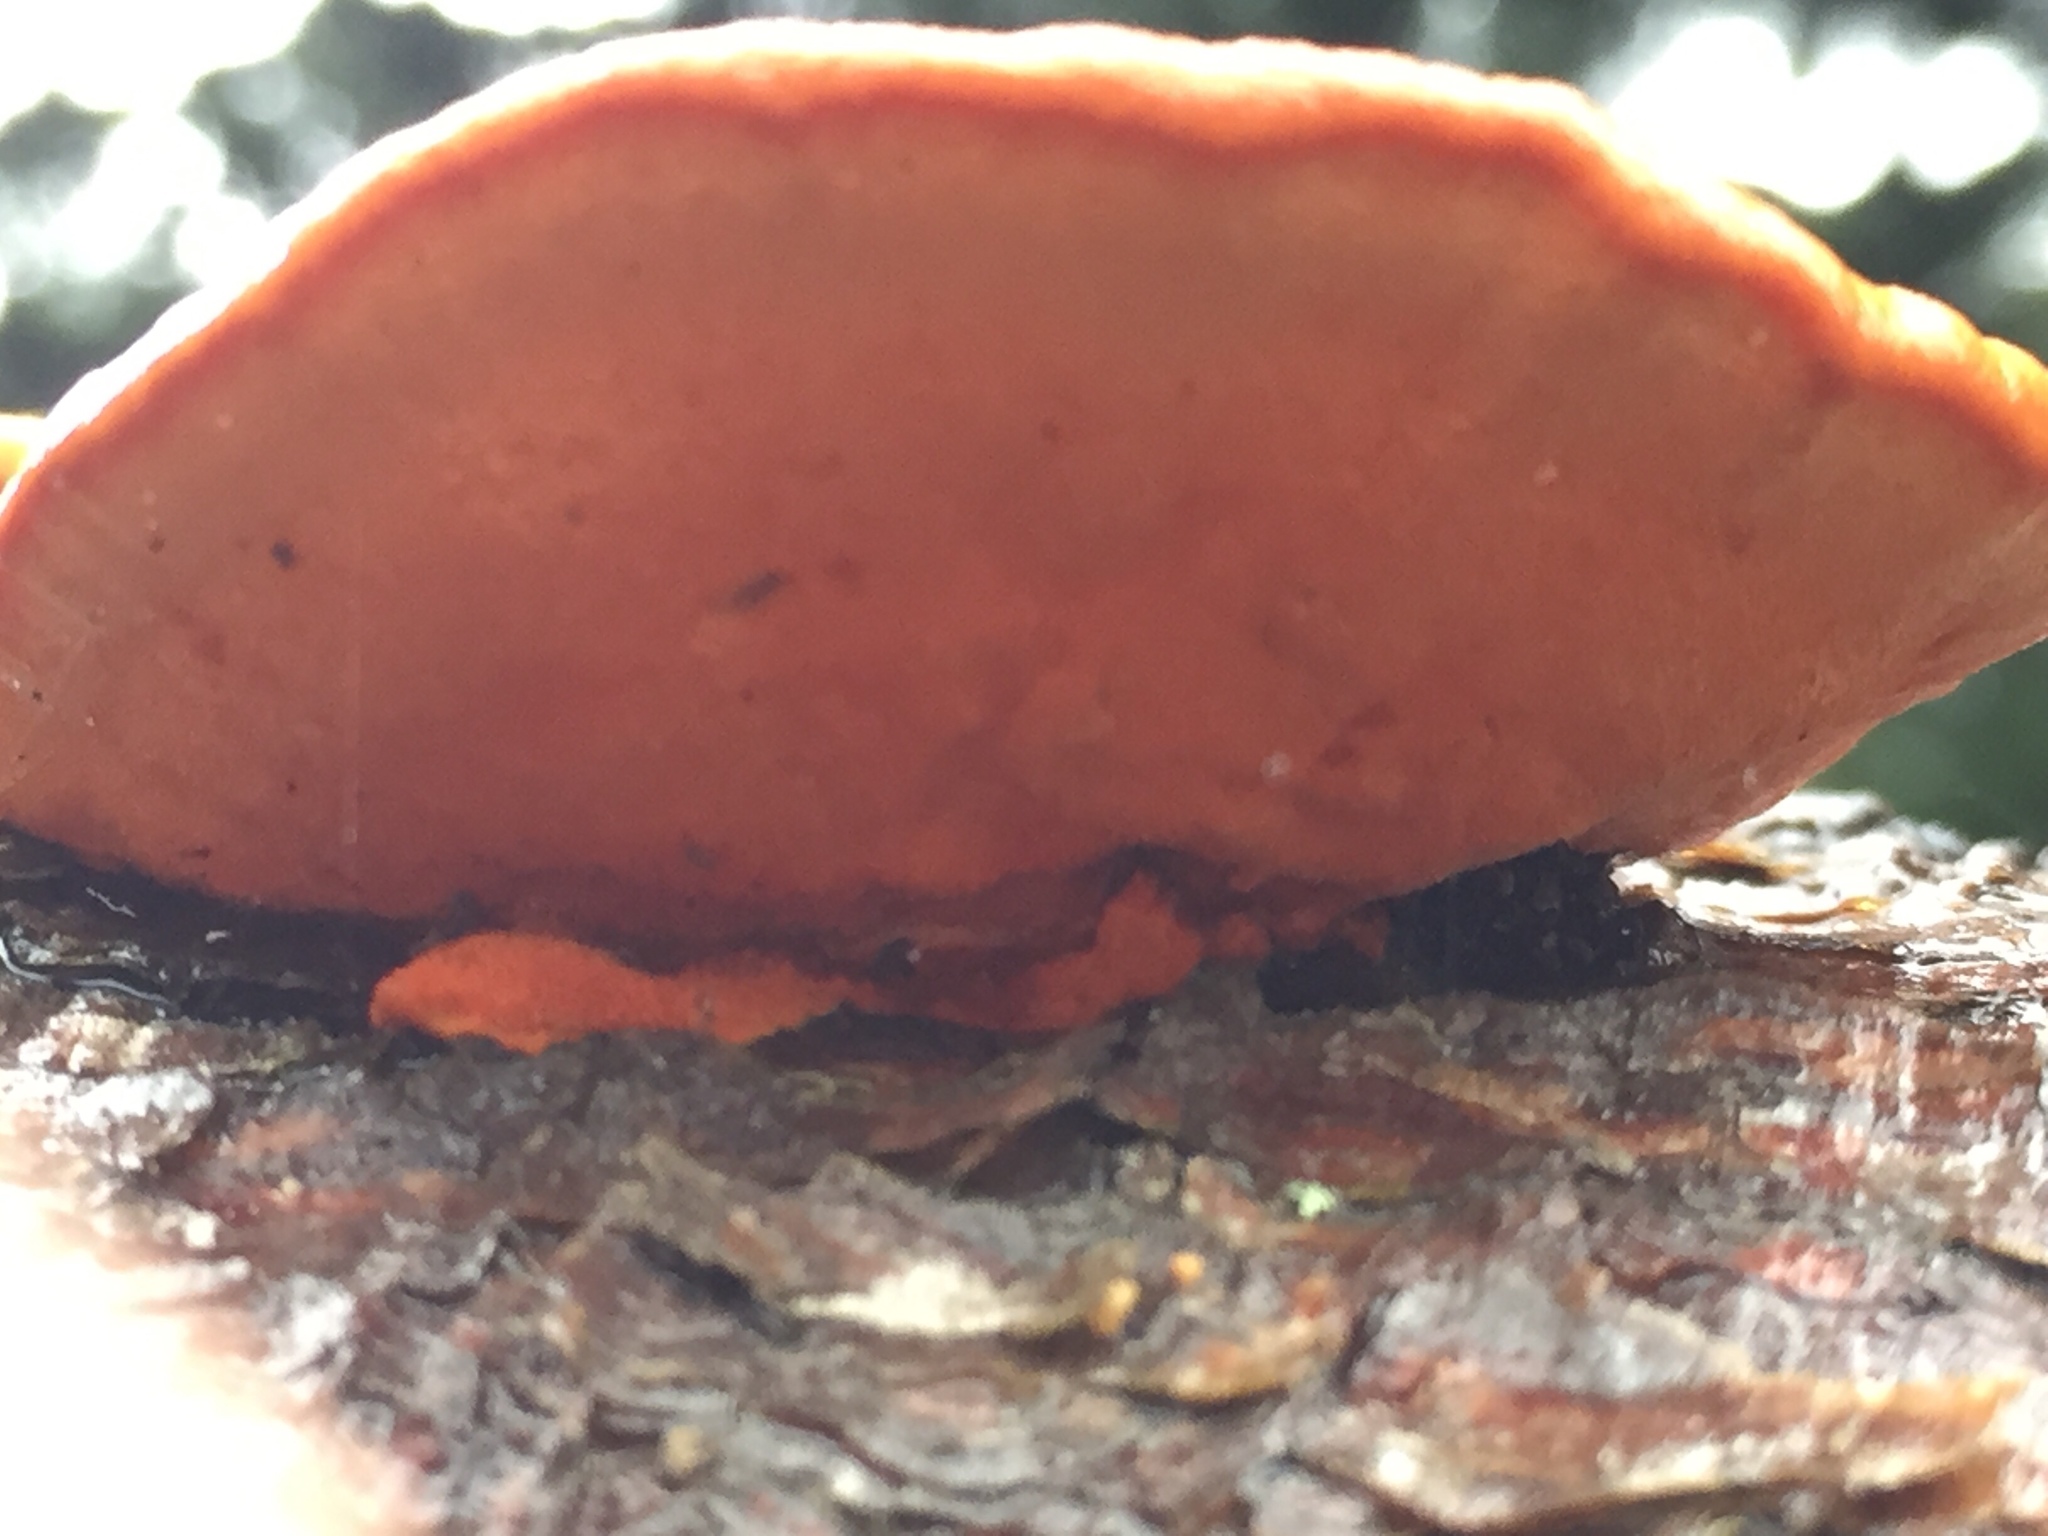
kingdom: Fungi
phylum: Basidiomycota
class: Agaricomycetes
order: Polyporales
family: Polyporaceae
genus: Trametes
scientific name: Trametes coccinea
